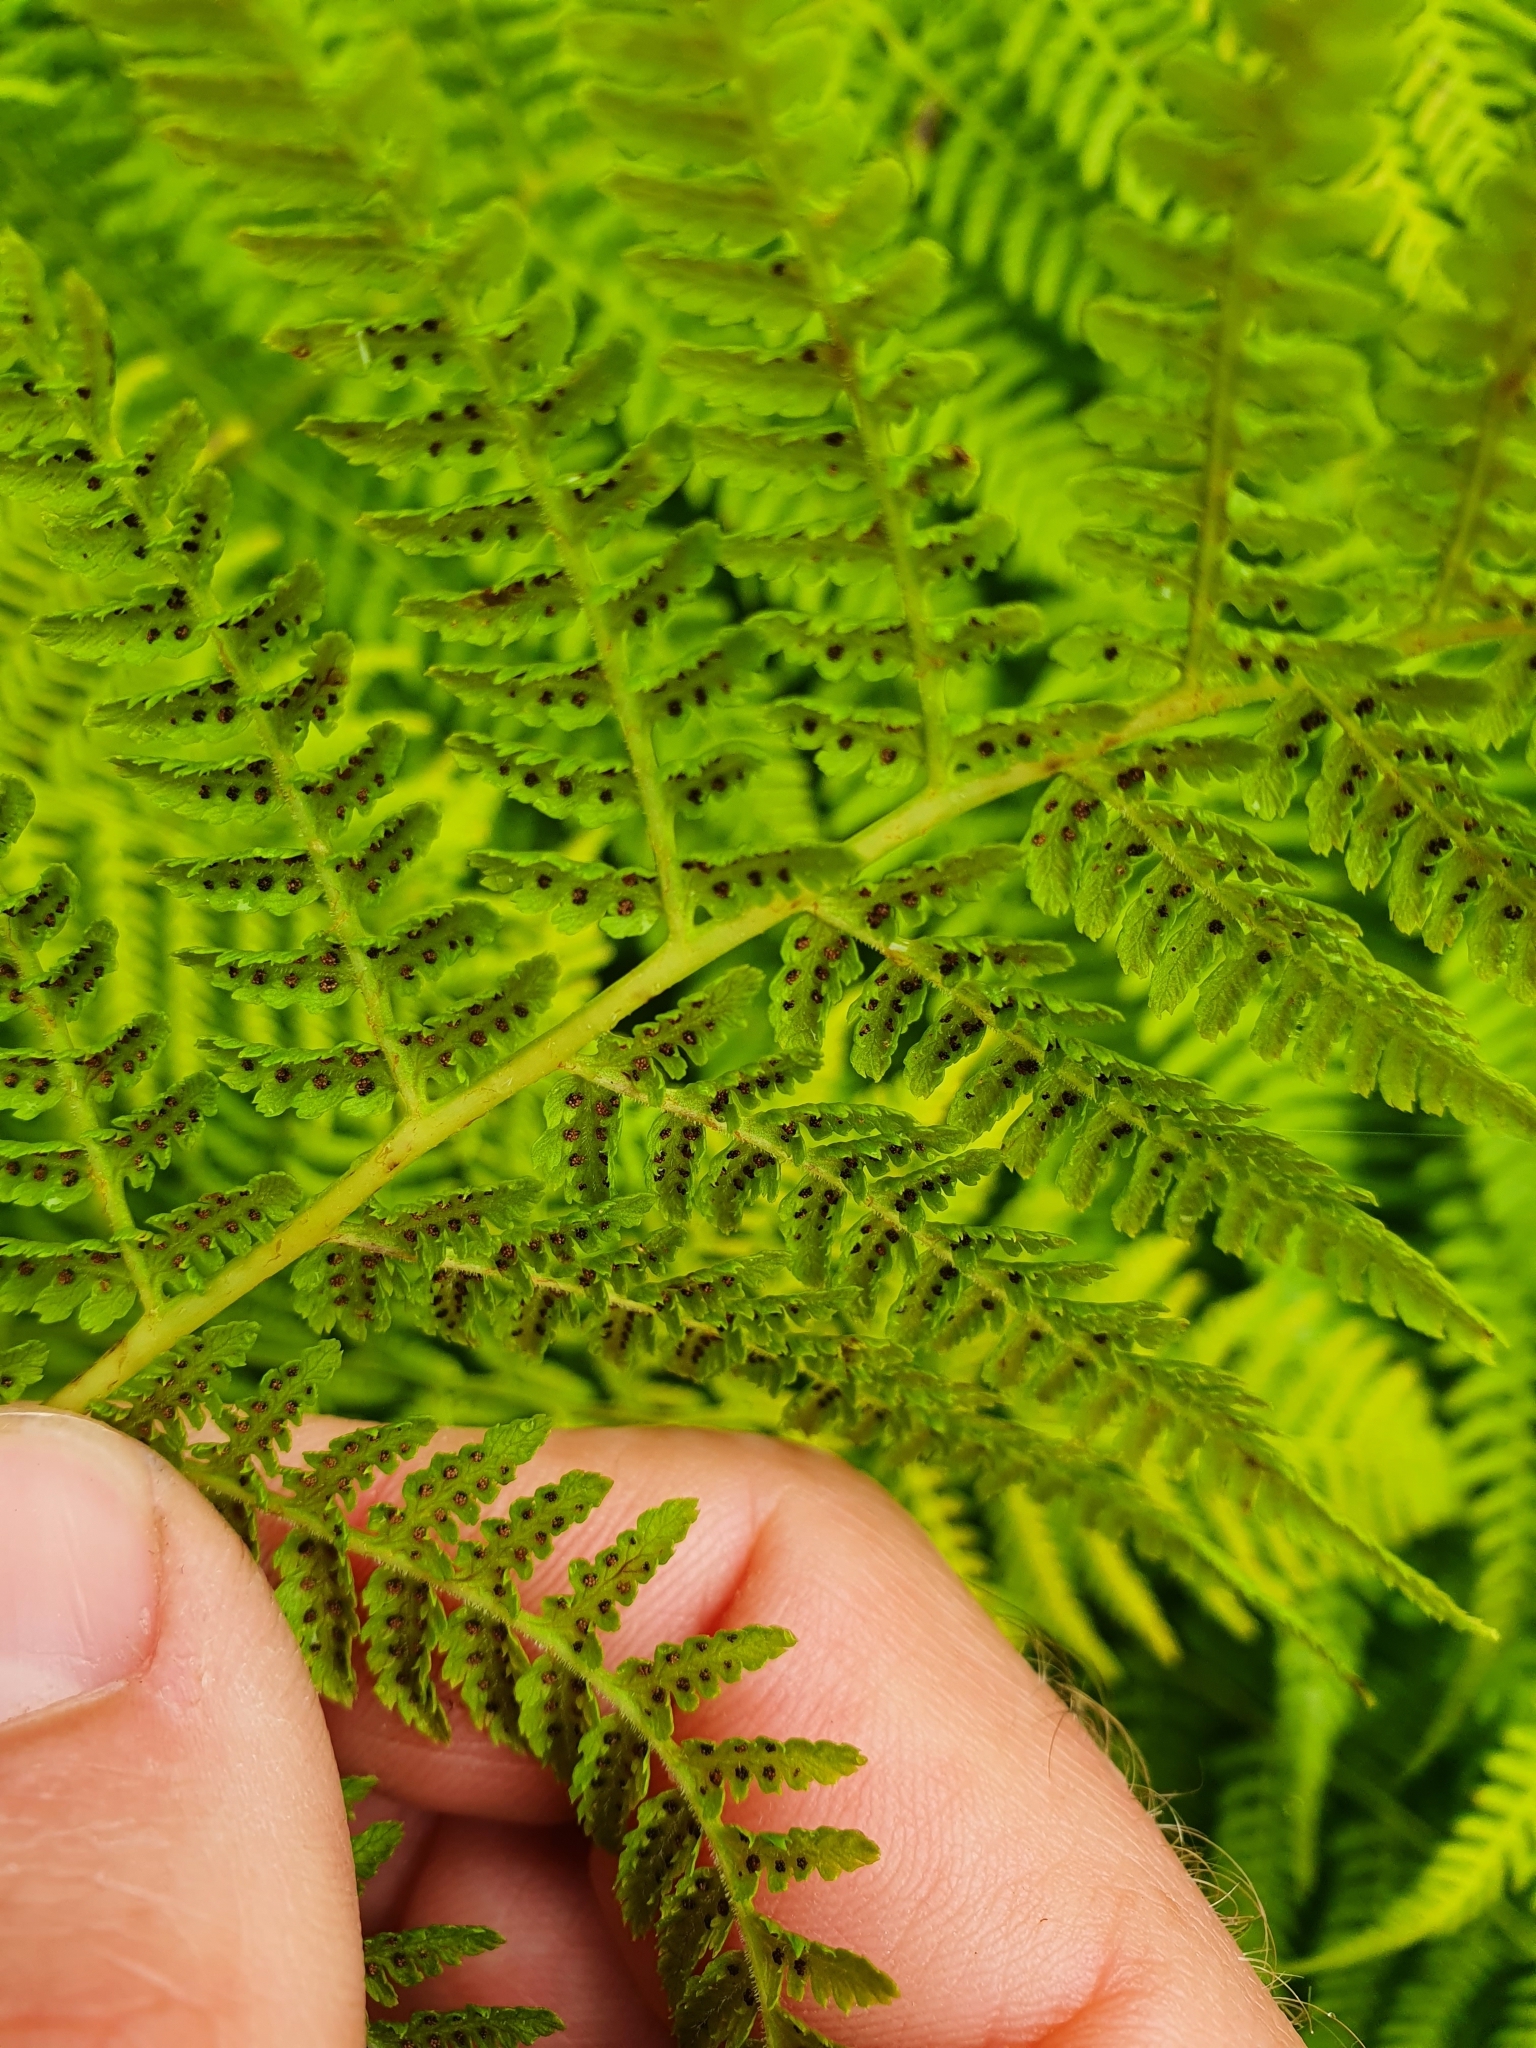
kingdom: Plantae
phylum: Tracheophyta
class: Polypodiopsida
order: Polypodiales
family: Athyriaceae
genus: Pseudathyrium
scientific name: Pseudathyrium alpestre
